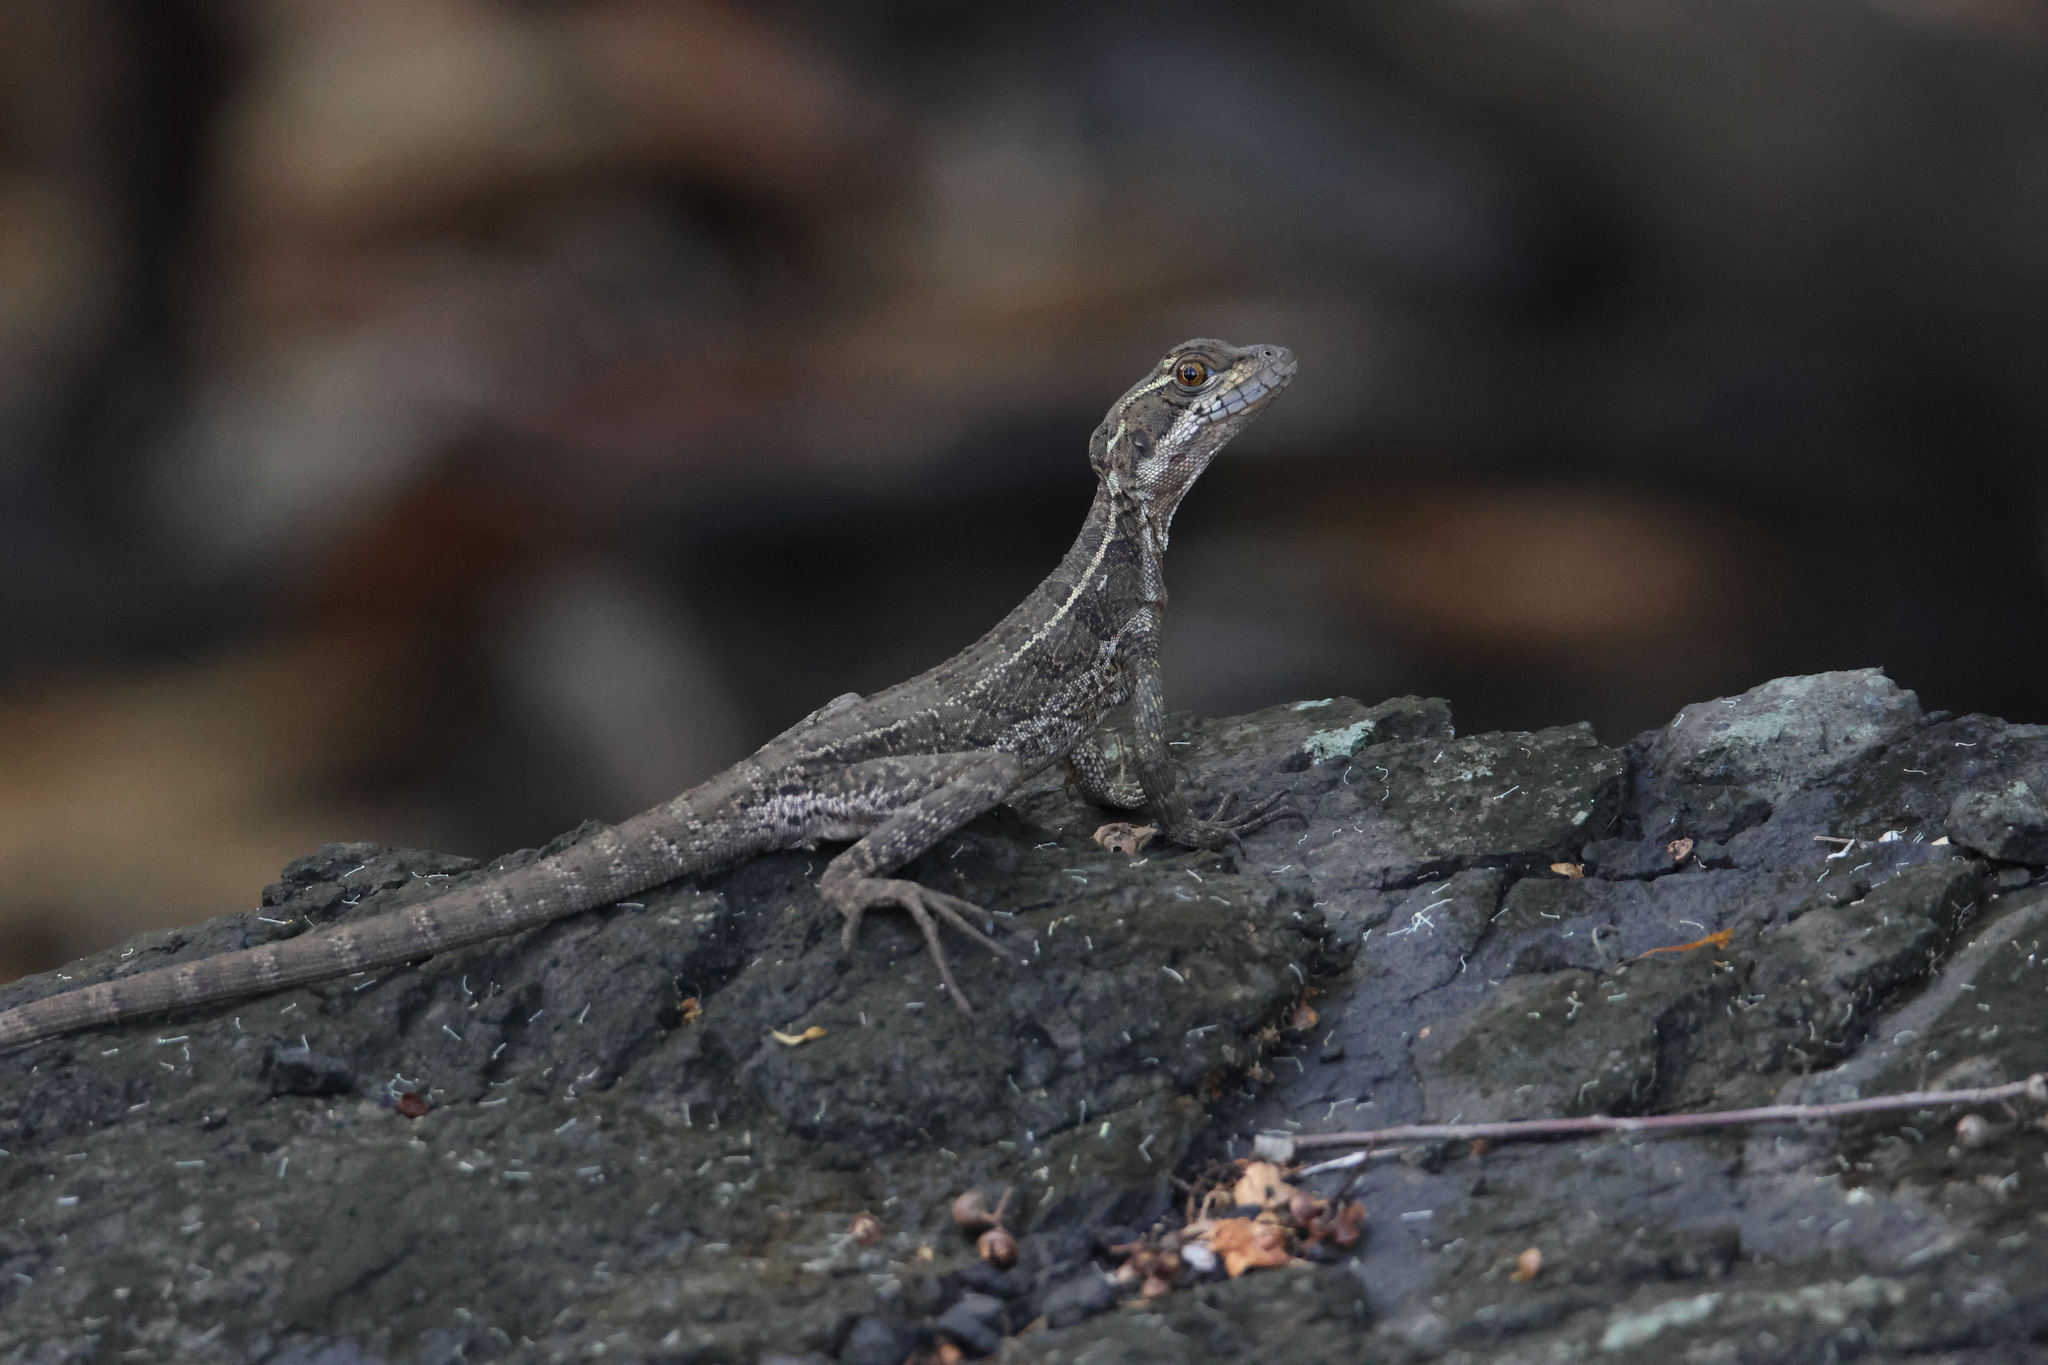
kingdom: Animalia
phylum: Chordata
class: Squamata
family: Corytophanidae
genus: Basiliscus
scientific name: Basiliscus basiliscus
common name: Common basilisk
